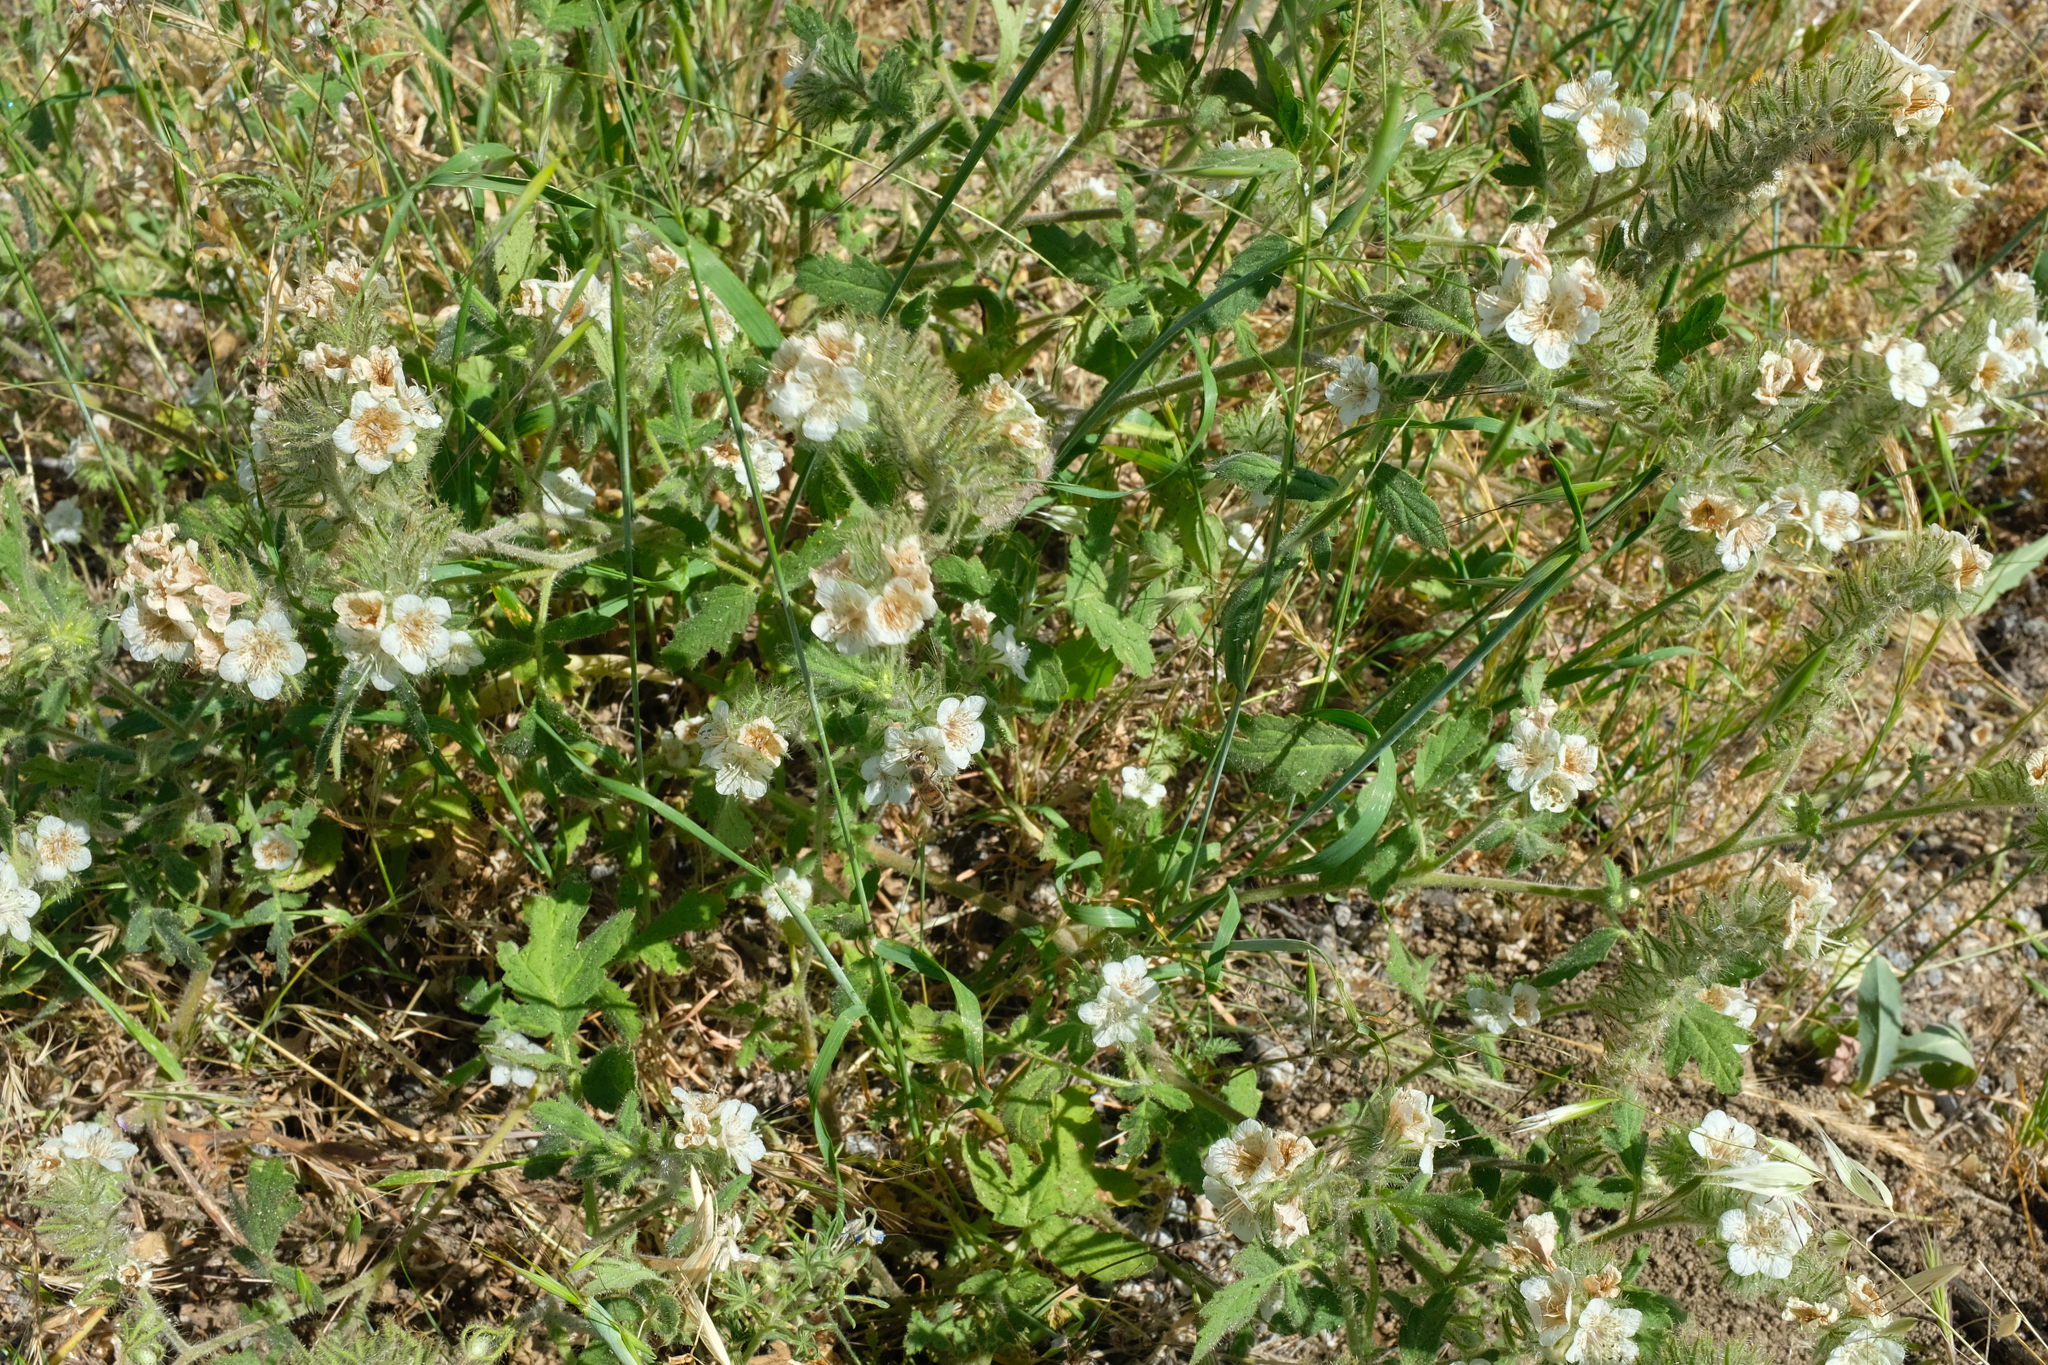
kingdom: Plantae
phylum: Tracheophyta
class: Magnoliopsida
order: Boraginales
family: Hydrophyllaceae
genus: Phacelia
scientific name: Phacelia cicutaria
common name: Caterpillar phacelia
